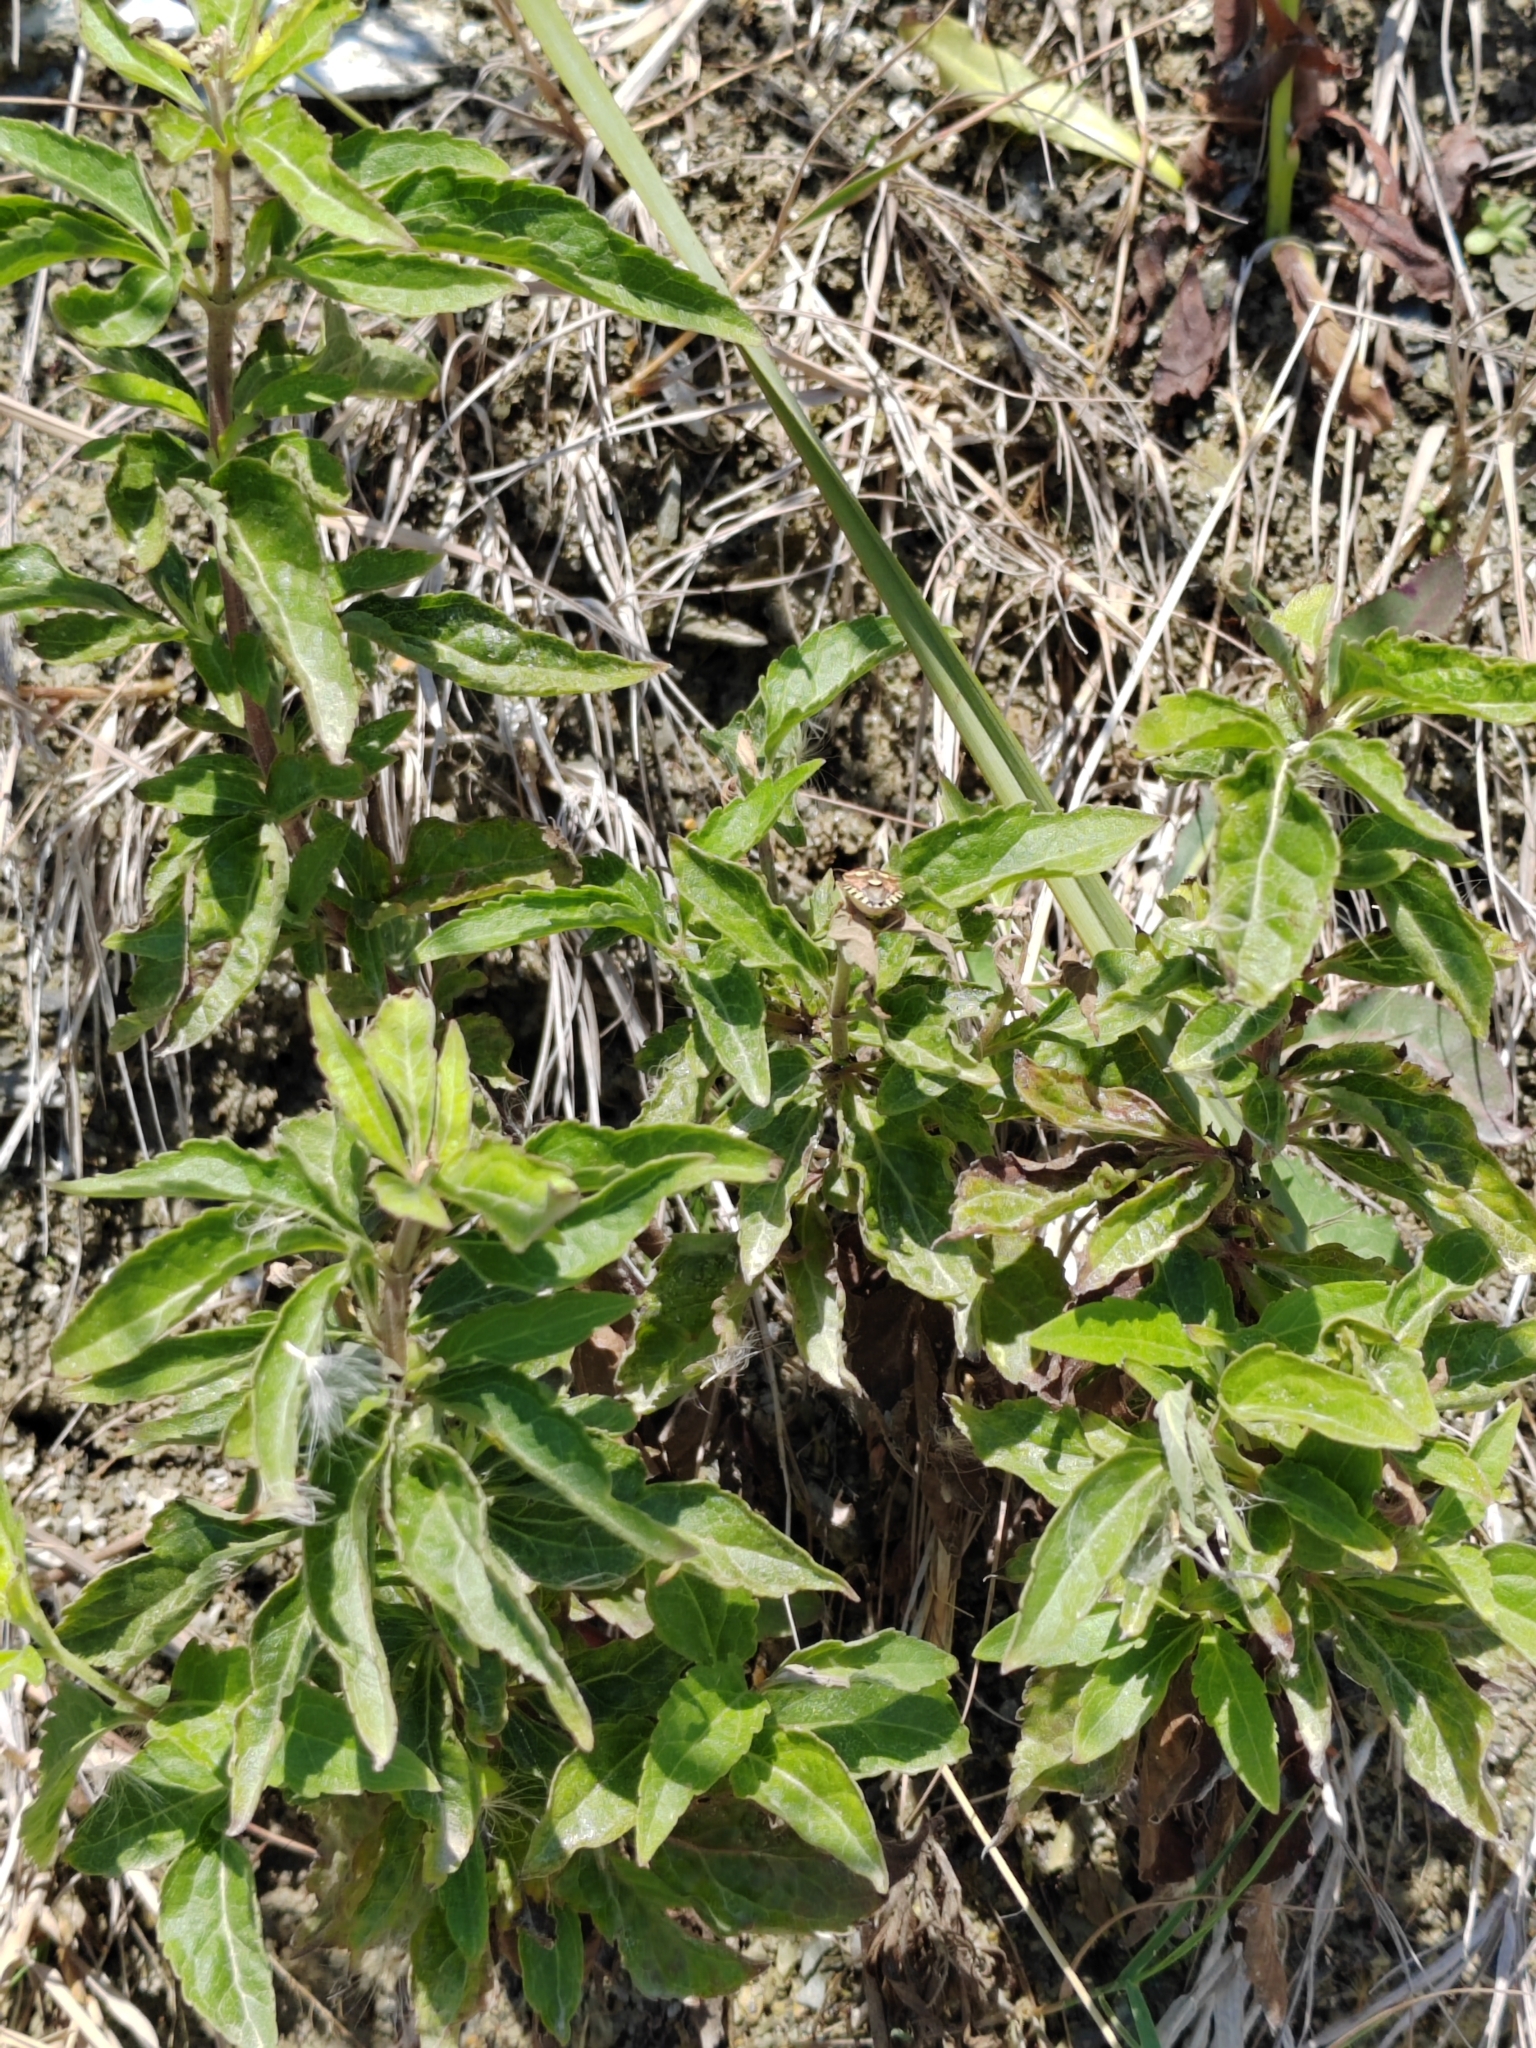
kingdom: Plantae
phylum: Tracheophyta
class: Magnoliopsida
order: Asterales
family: Asteraceae
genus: Eupatorium
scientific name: Eupatorium cannabinum
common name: Hemp-agrimony
